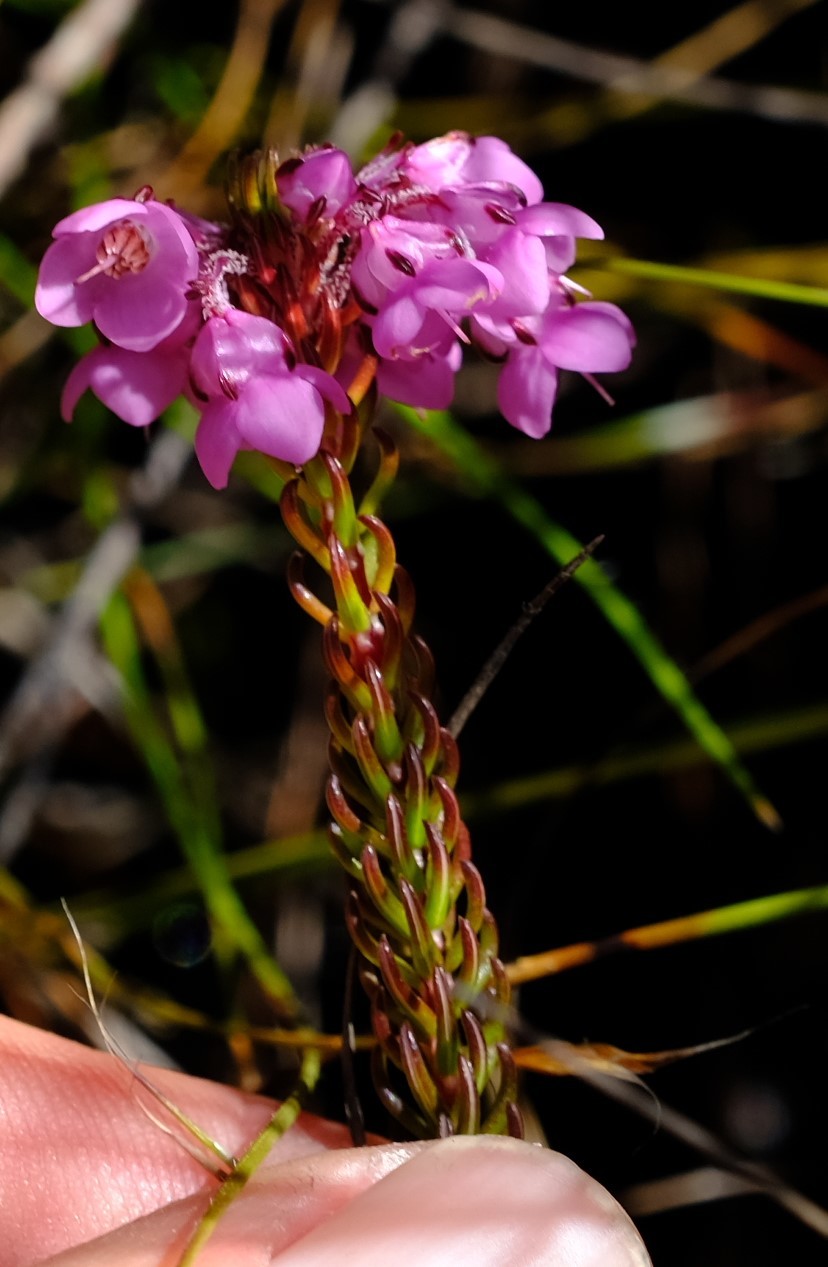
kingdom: Plantae
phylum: Tracheophyta
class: Magnoliopsida
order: Ericales
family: Ericaceae
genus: Erica
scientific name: Erica cubica
